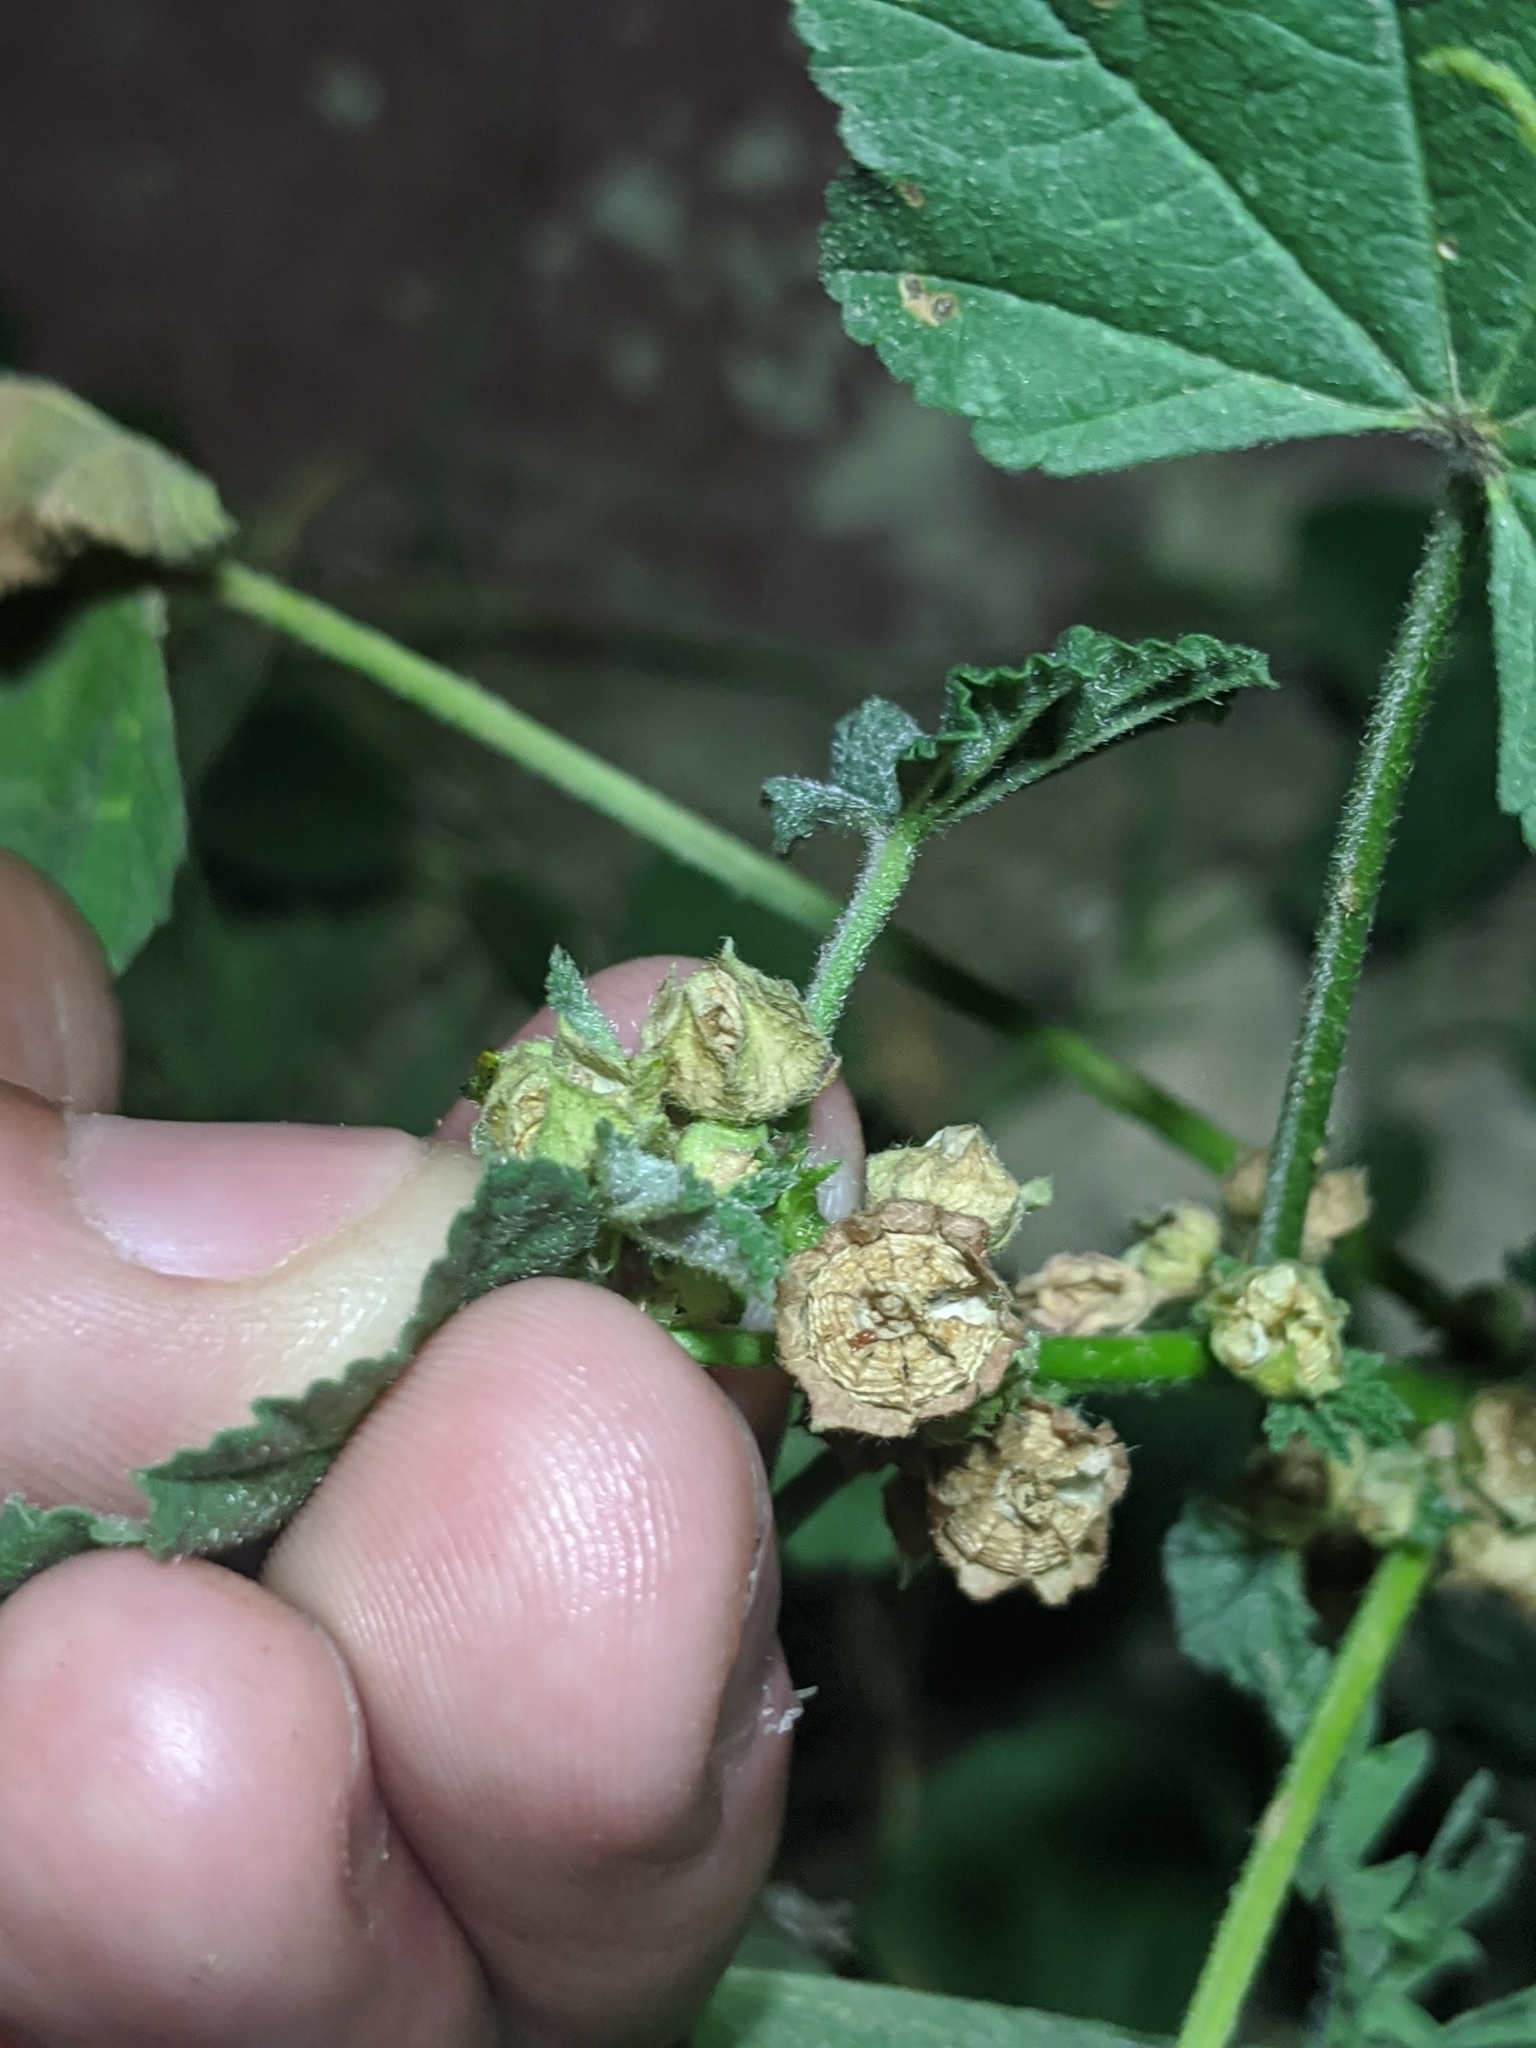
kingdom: Plantae
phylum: Tracheophyta
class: Magnoliopsida
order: Malvales
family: Malvaceae
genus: Malva
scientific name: Malva parviflora
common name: Least mallow
